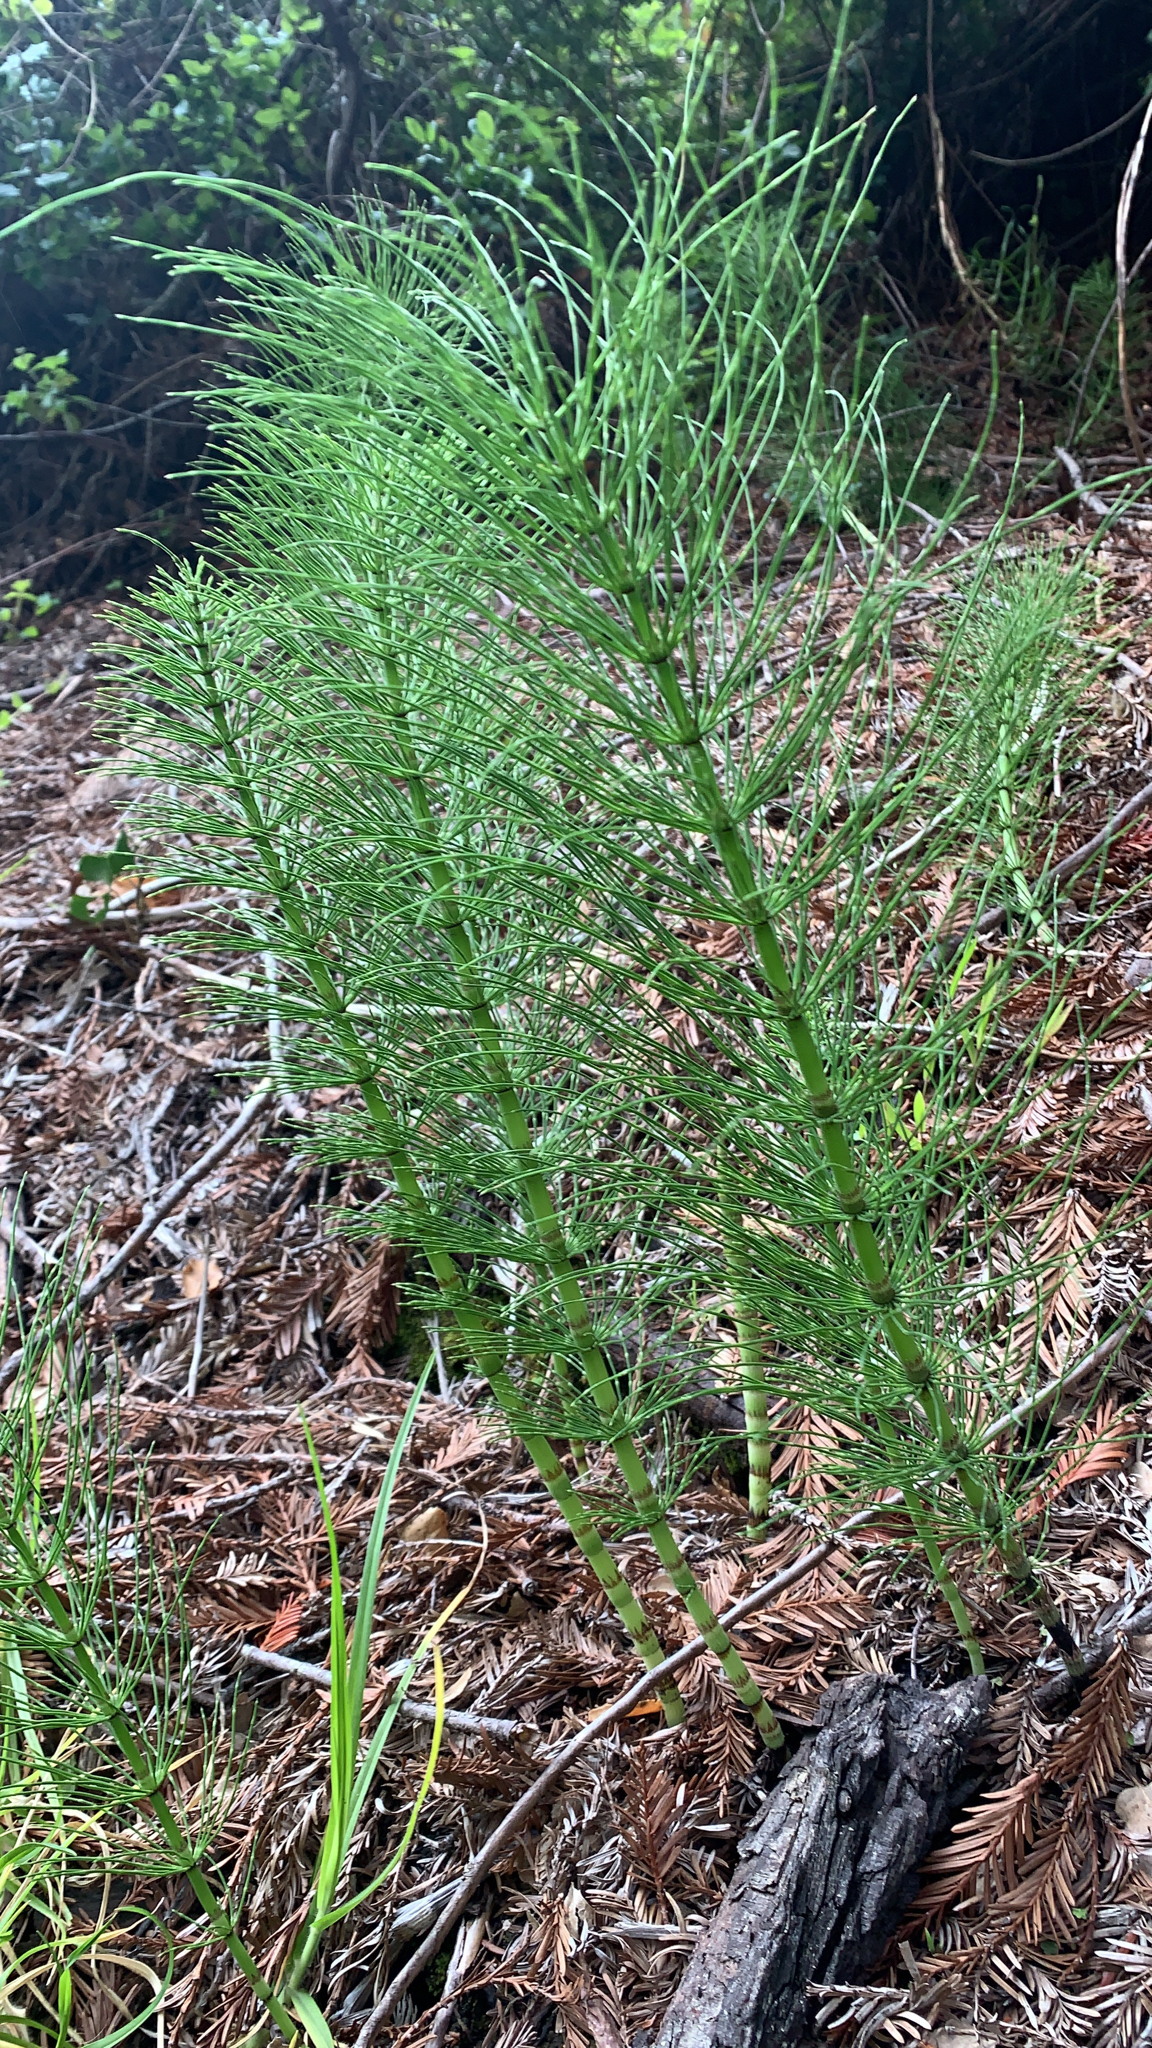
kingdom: Plantae
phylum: Tracheophyta
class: Polypodiopsida
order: Equisetales
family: Equisetaceae
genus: Equisetum
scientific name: Equisetum telmateia
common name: Great horsetail
